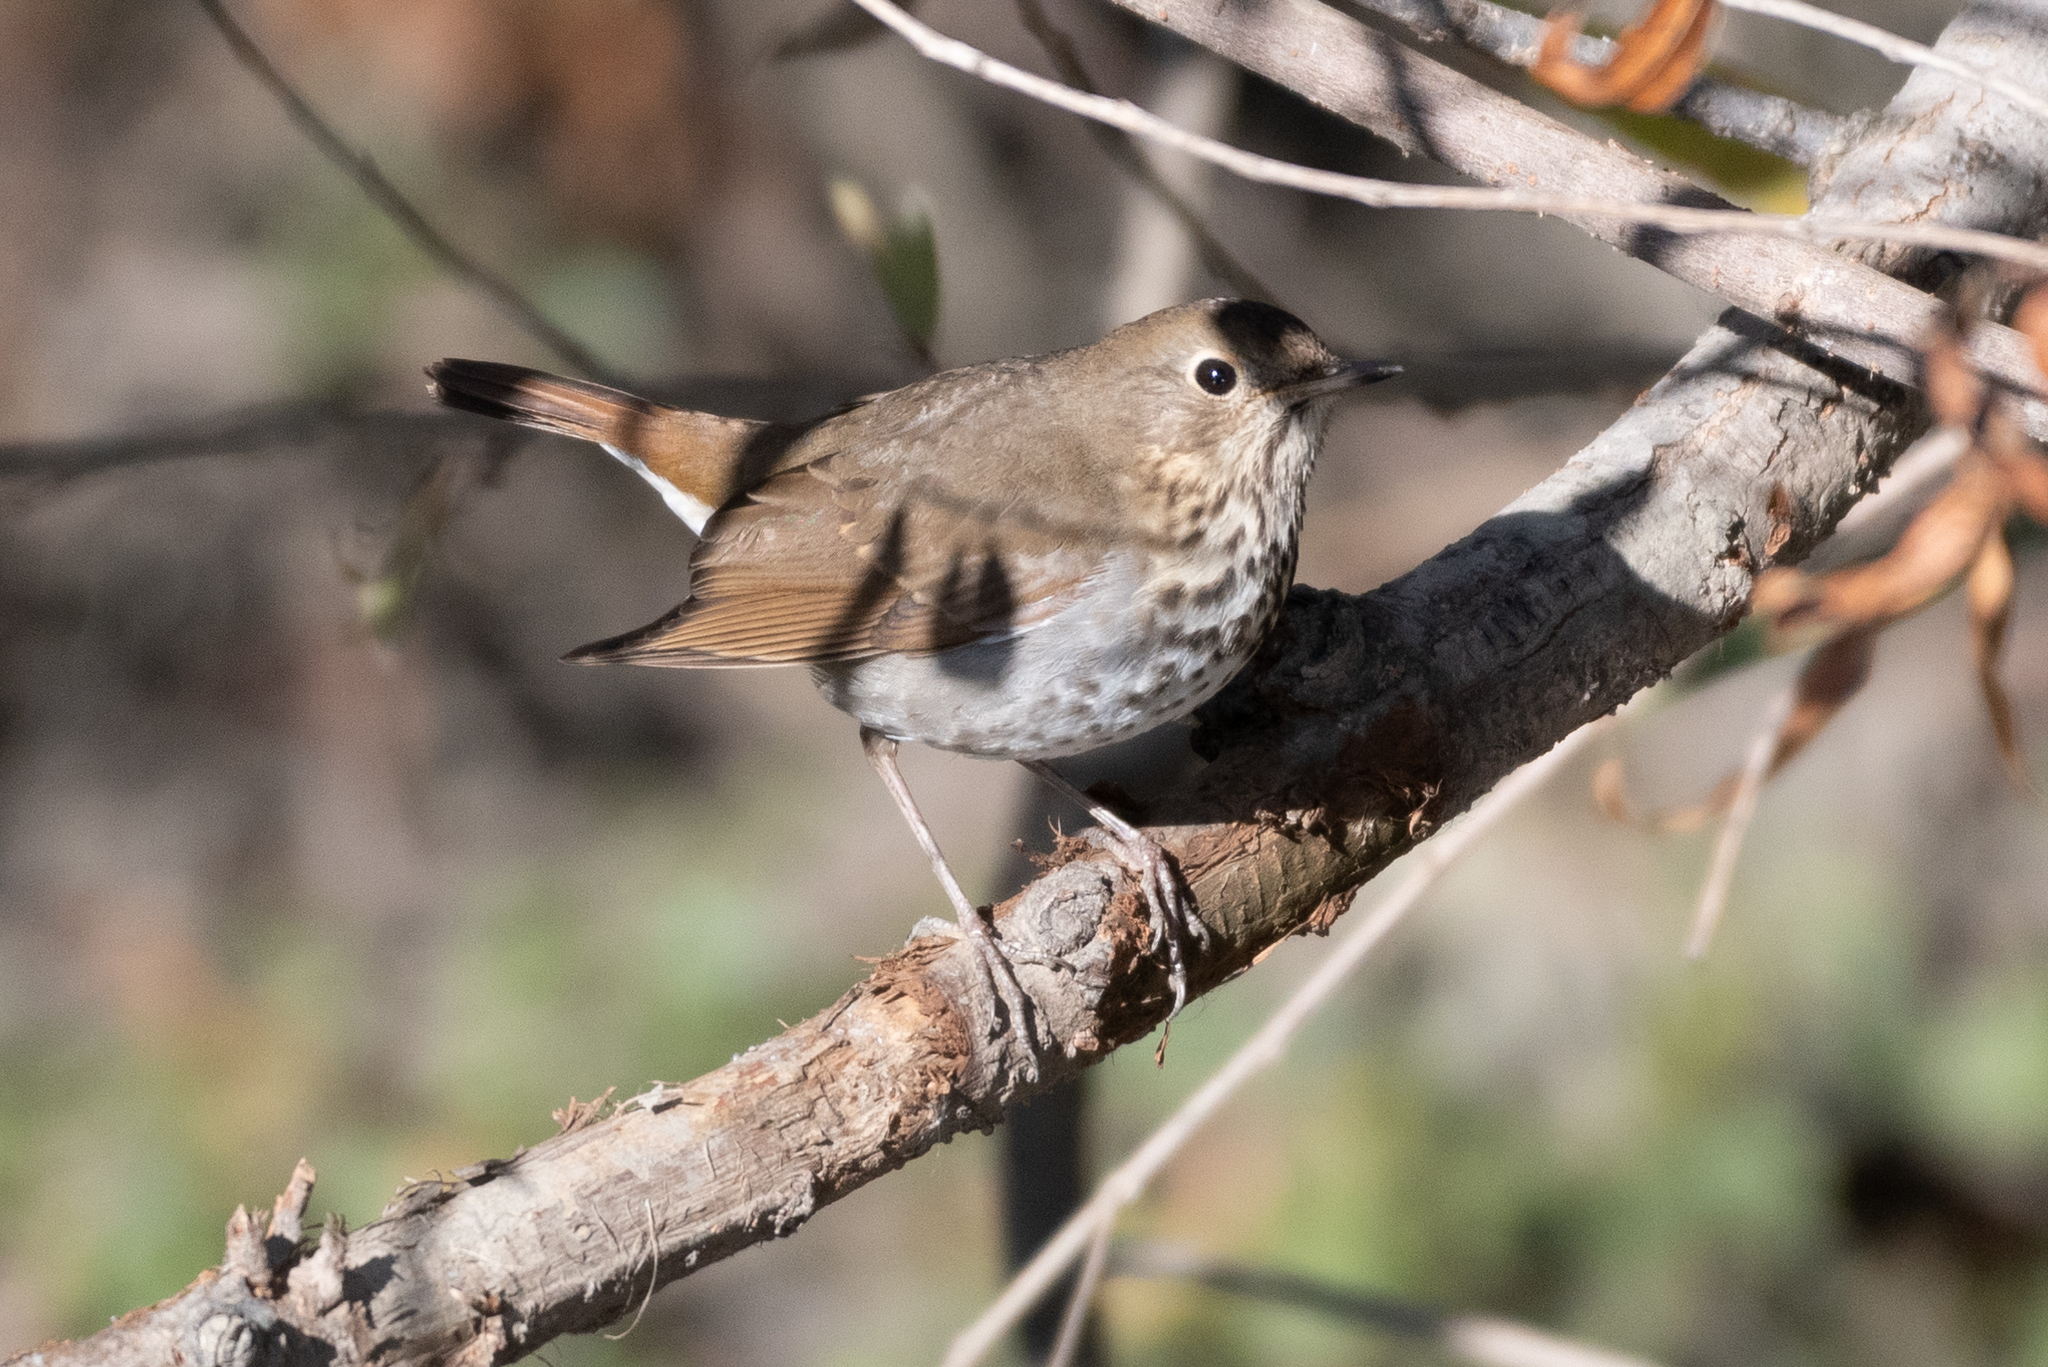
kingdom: Animalia
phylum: Chordata
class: Aves
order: Passeriformes
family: Turdidae
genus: Catharus
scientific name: Catharus guttatus
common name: Hermit thrush
